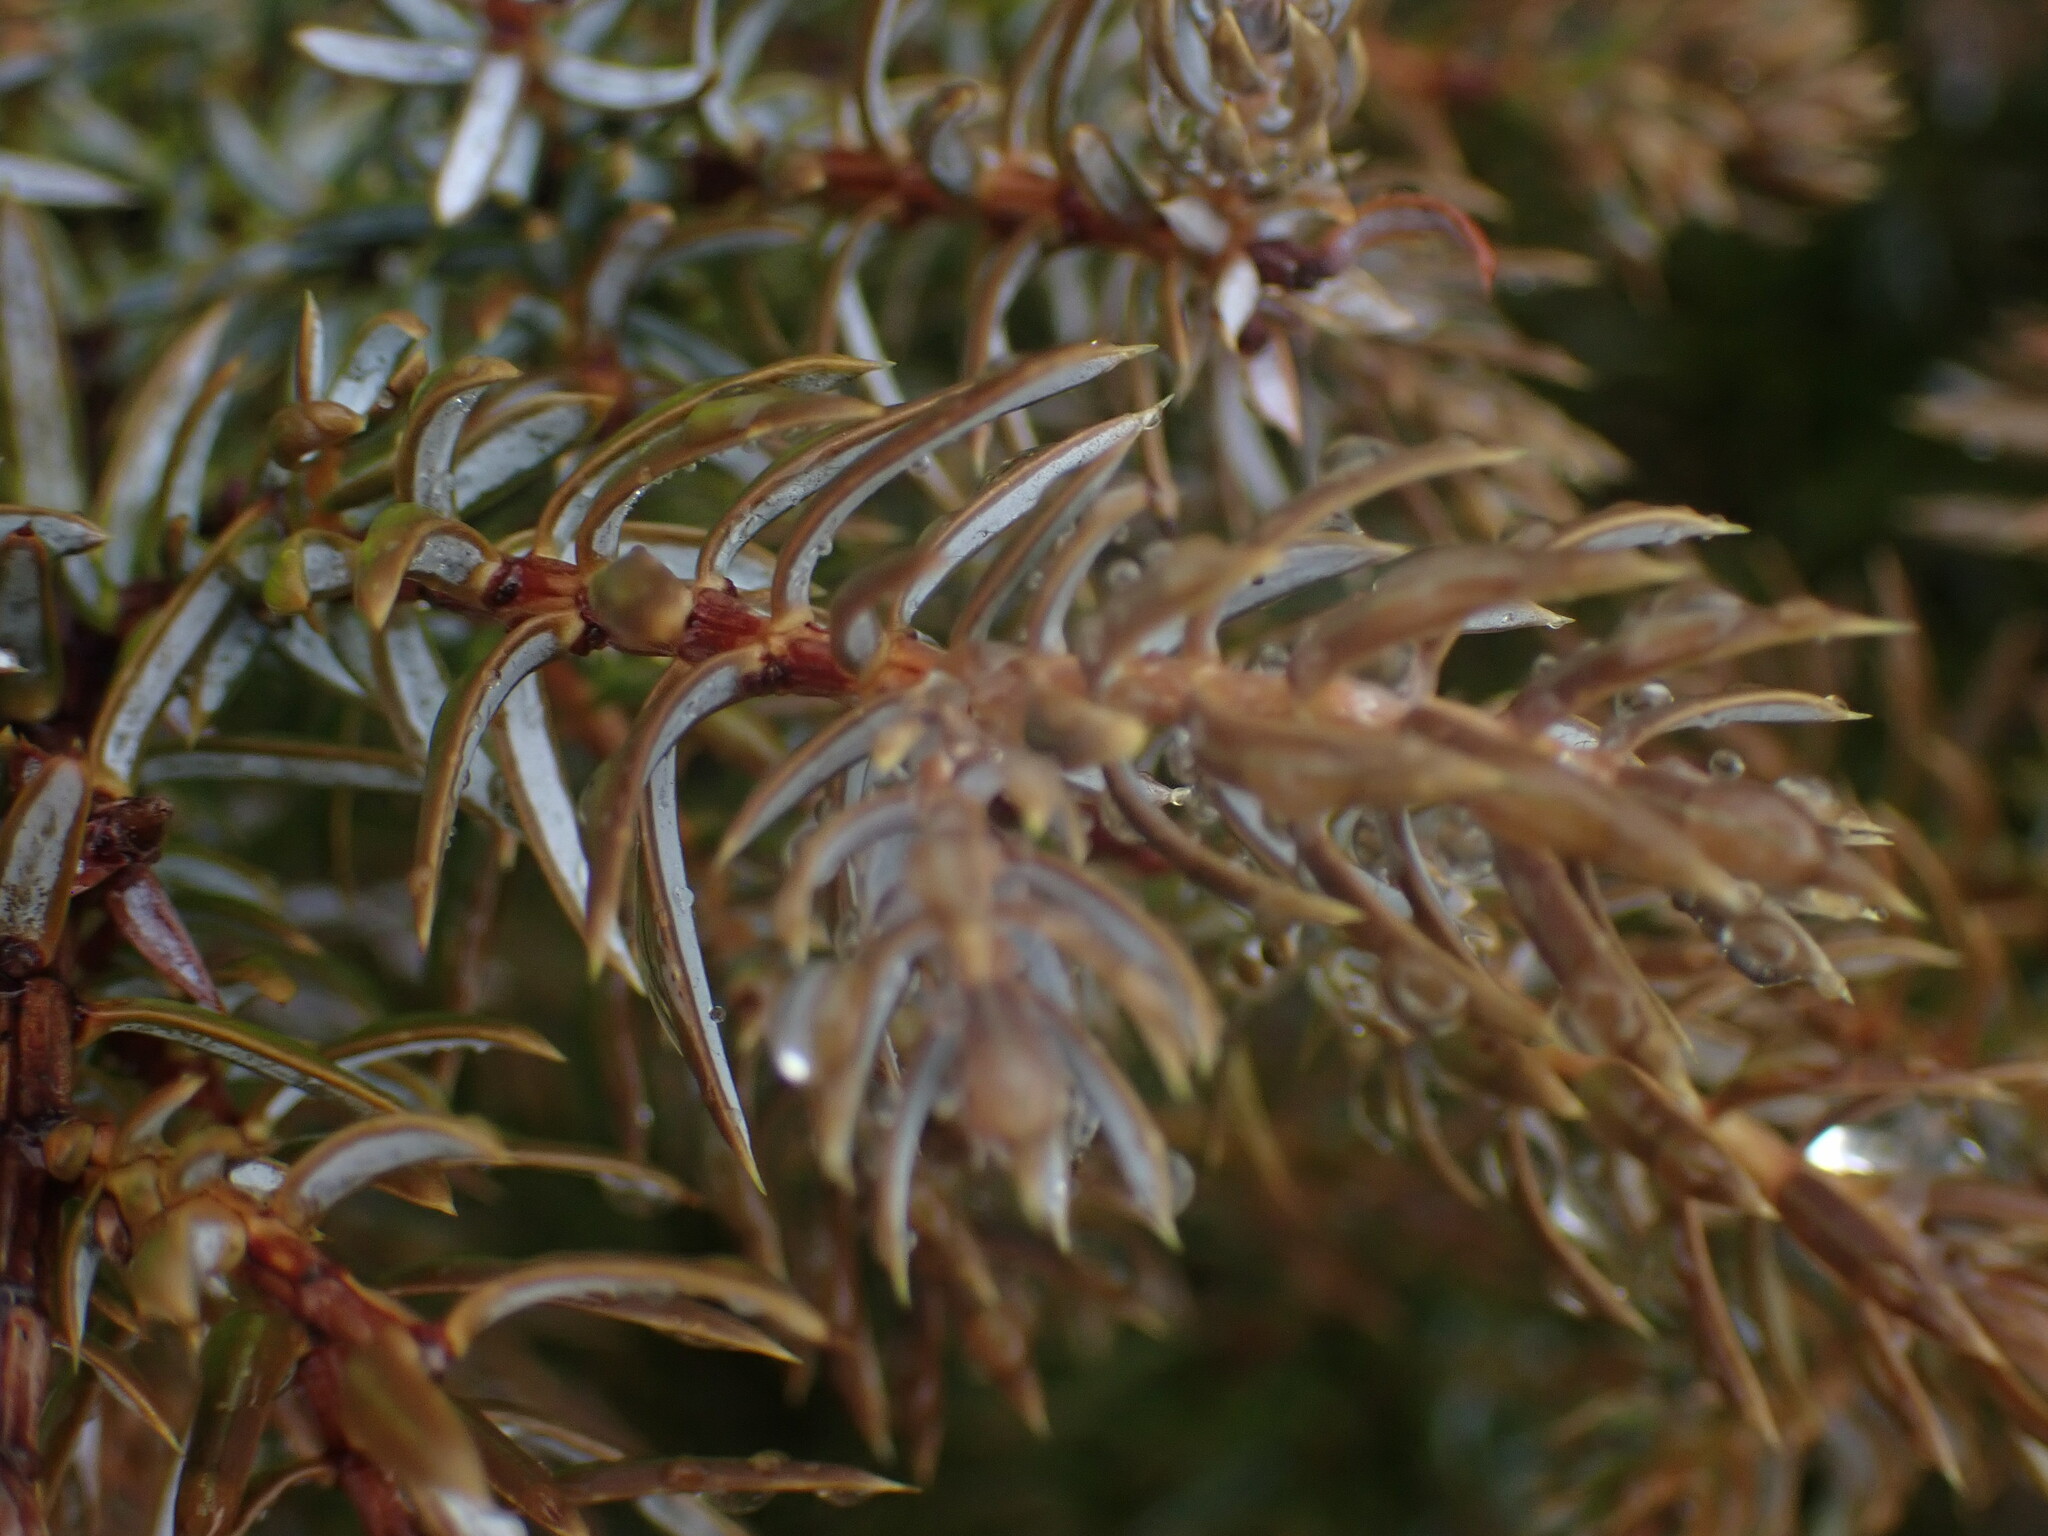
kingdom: Plantae
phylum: Tracheophyta
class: Pinopsida
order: Pinales
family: Cupressaceae
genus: Juniperus
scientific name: Juniperus communis
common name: Common juniper
